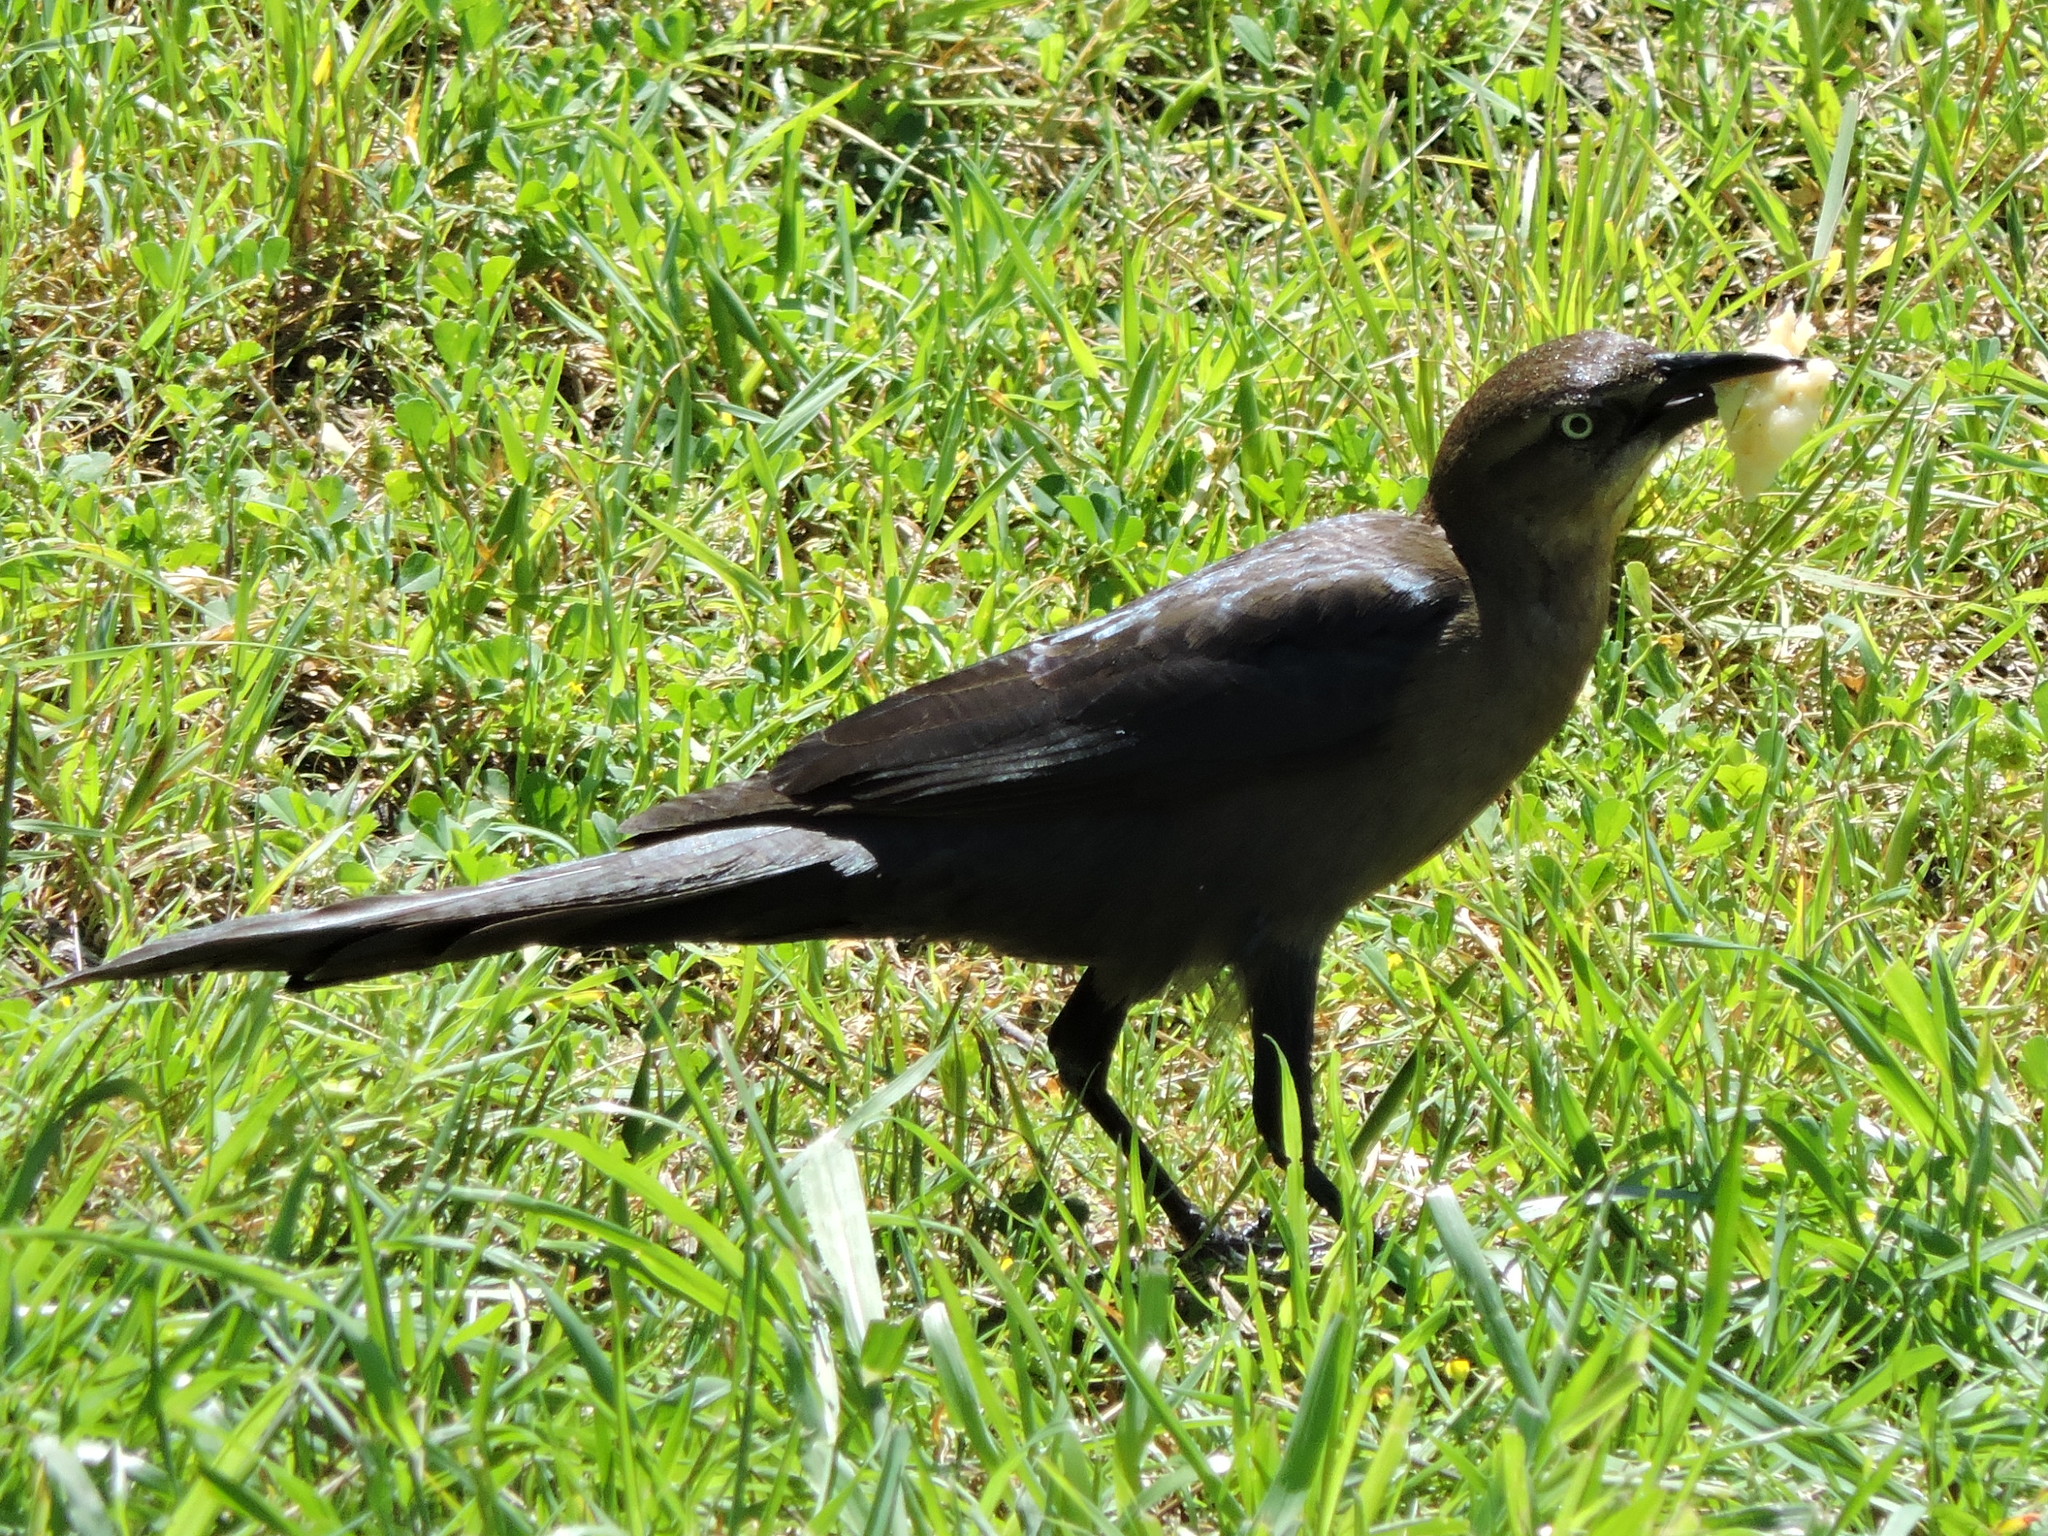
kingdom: Animalia
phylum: Chordata
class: Aves
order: Passeriformes
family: Icteridae
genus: Quiscalus
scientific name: Quiscalus mexicanus
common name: Great-tailed grackle
